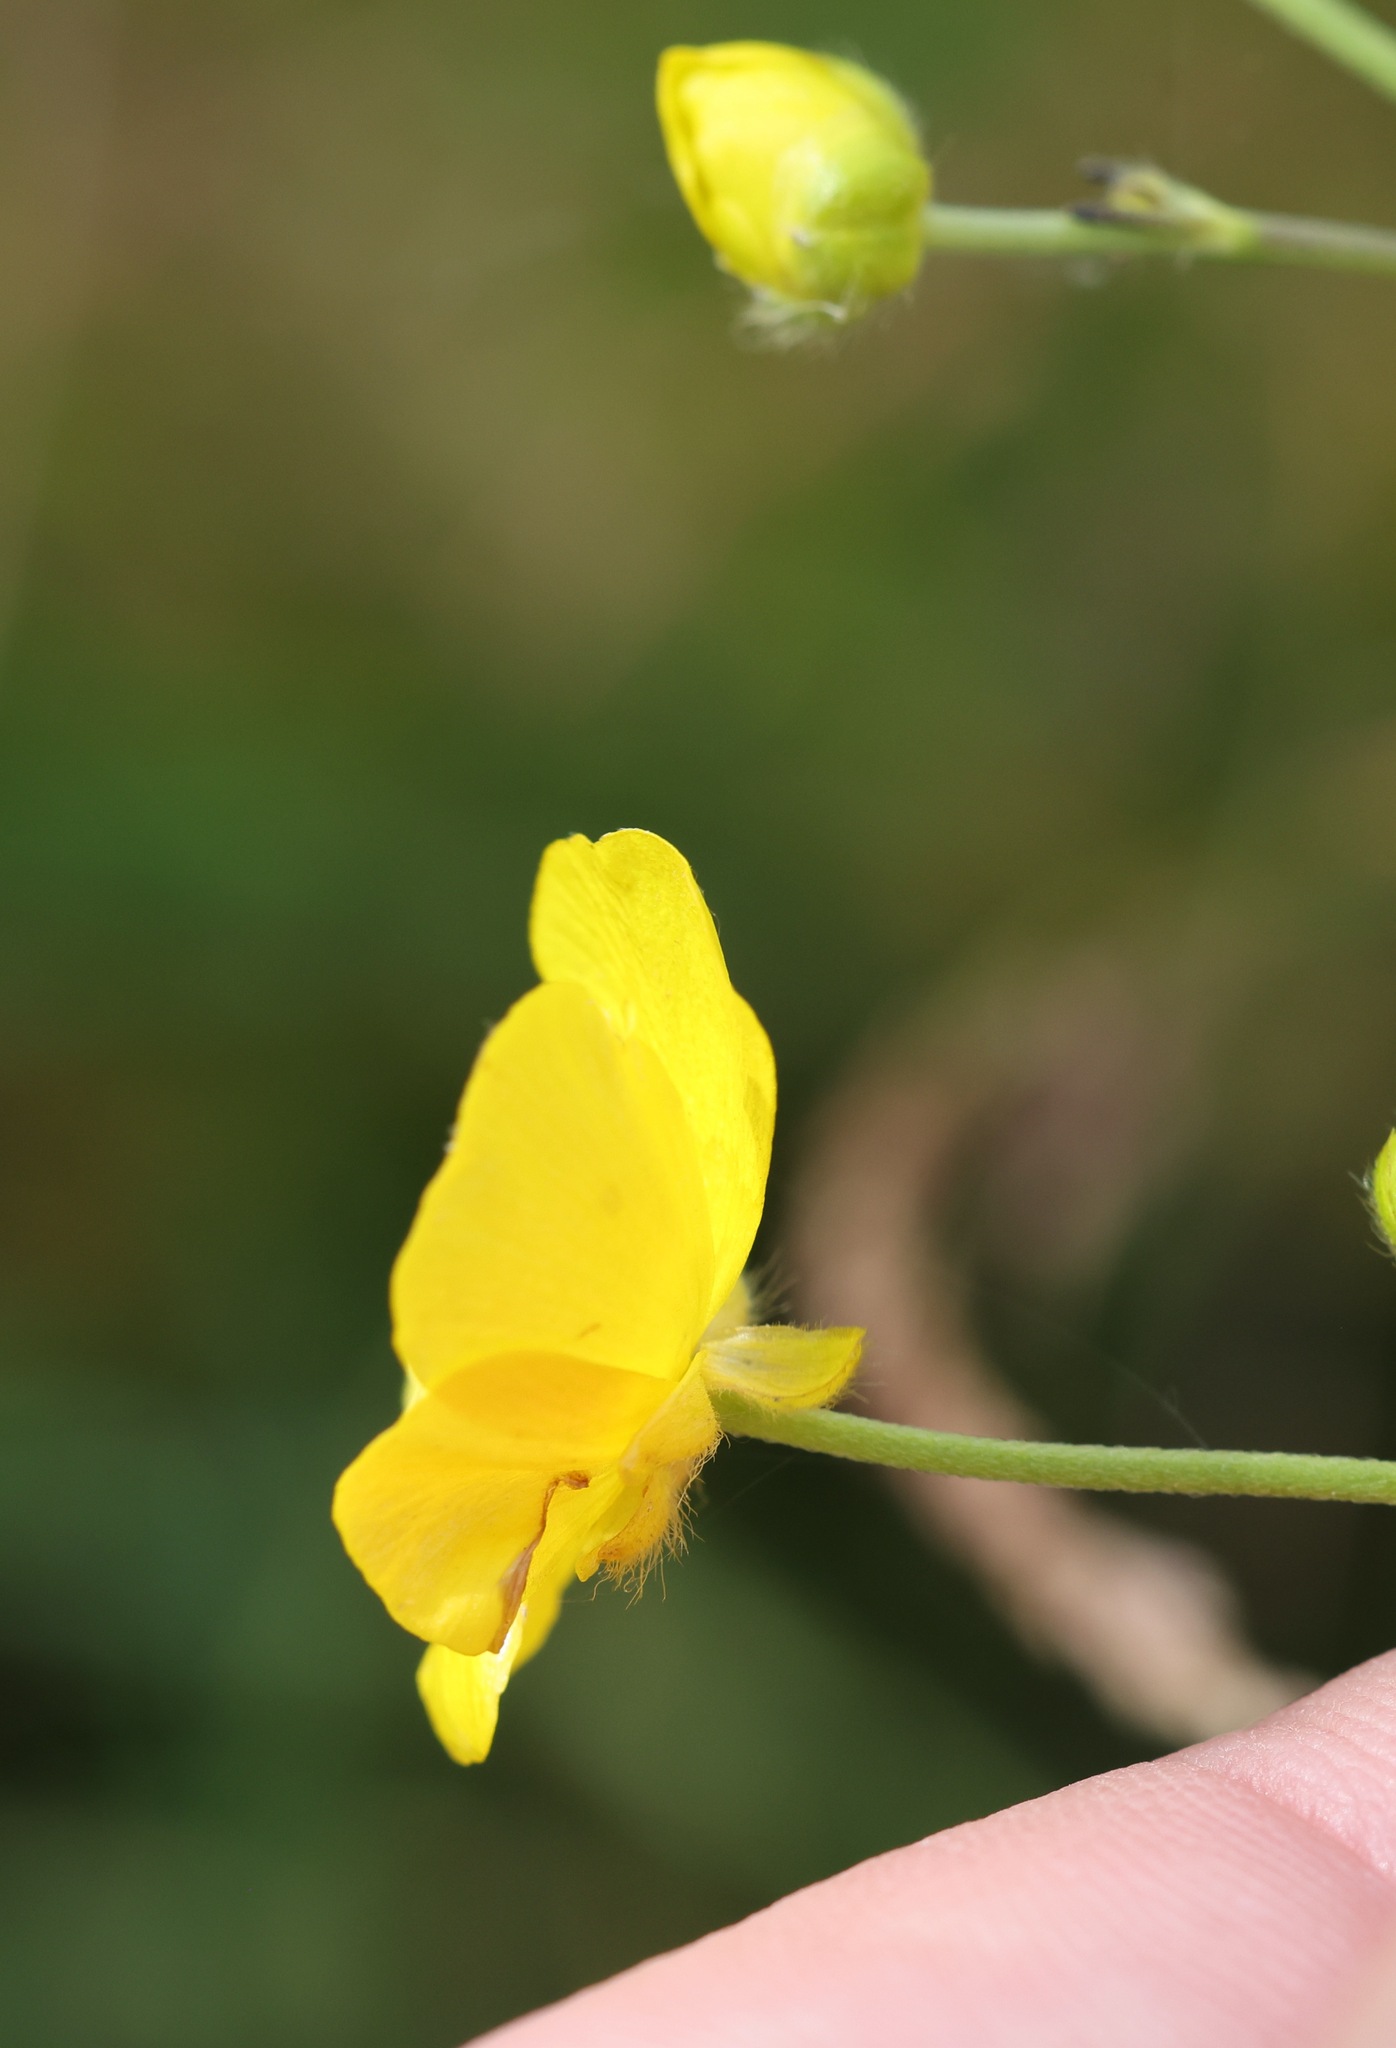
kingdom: Plantae
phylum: Tracheophyta
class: Magnoliopsida
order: Ranunculales
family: Ranunculaceae
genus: Ranunculus
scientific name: Ranunculus acris
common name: Meadow buttercup
